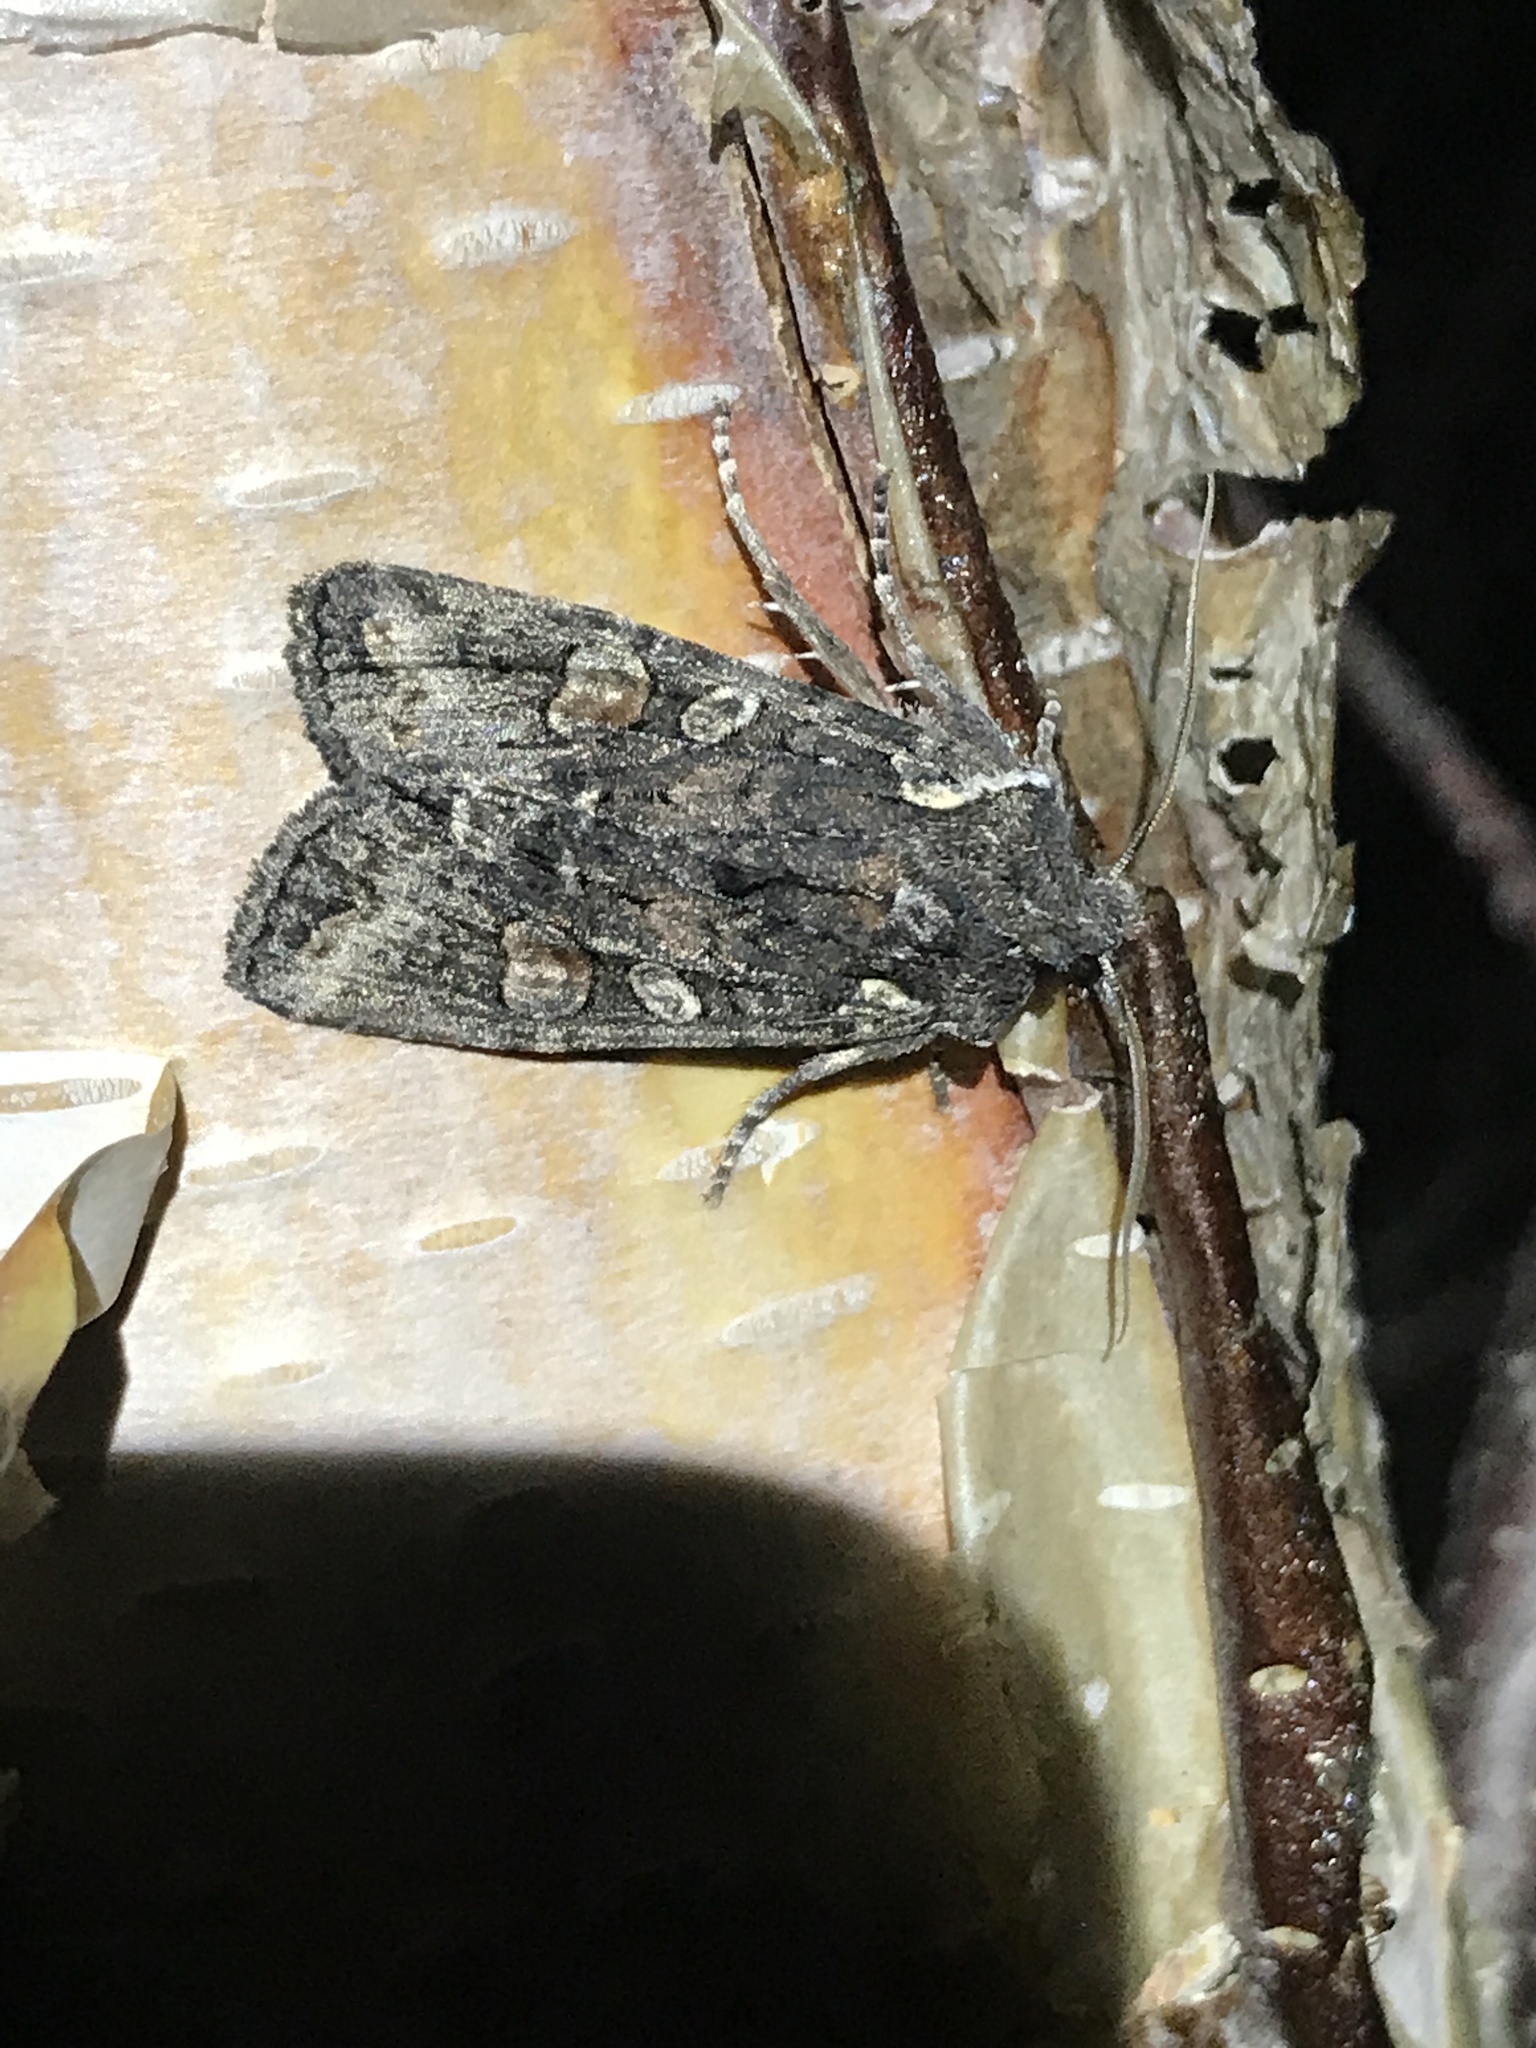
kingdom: Animalia
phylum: Arthropoda
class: Insecta
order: Lepidoptera
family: Noctuidae
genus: Lithophane
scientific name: Lithophane pexata
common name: Plush-naped pinion moth
